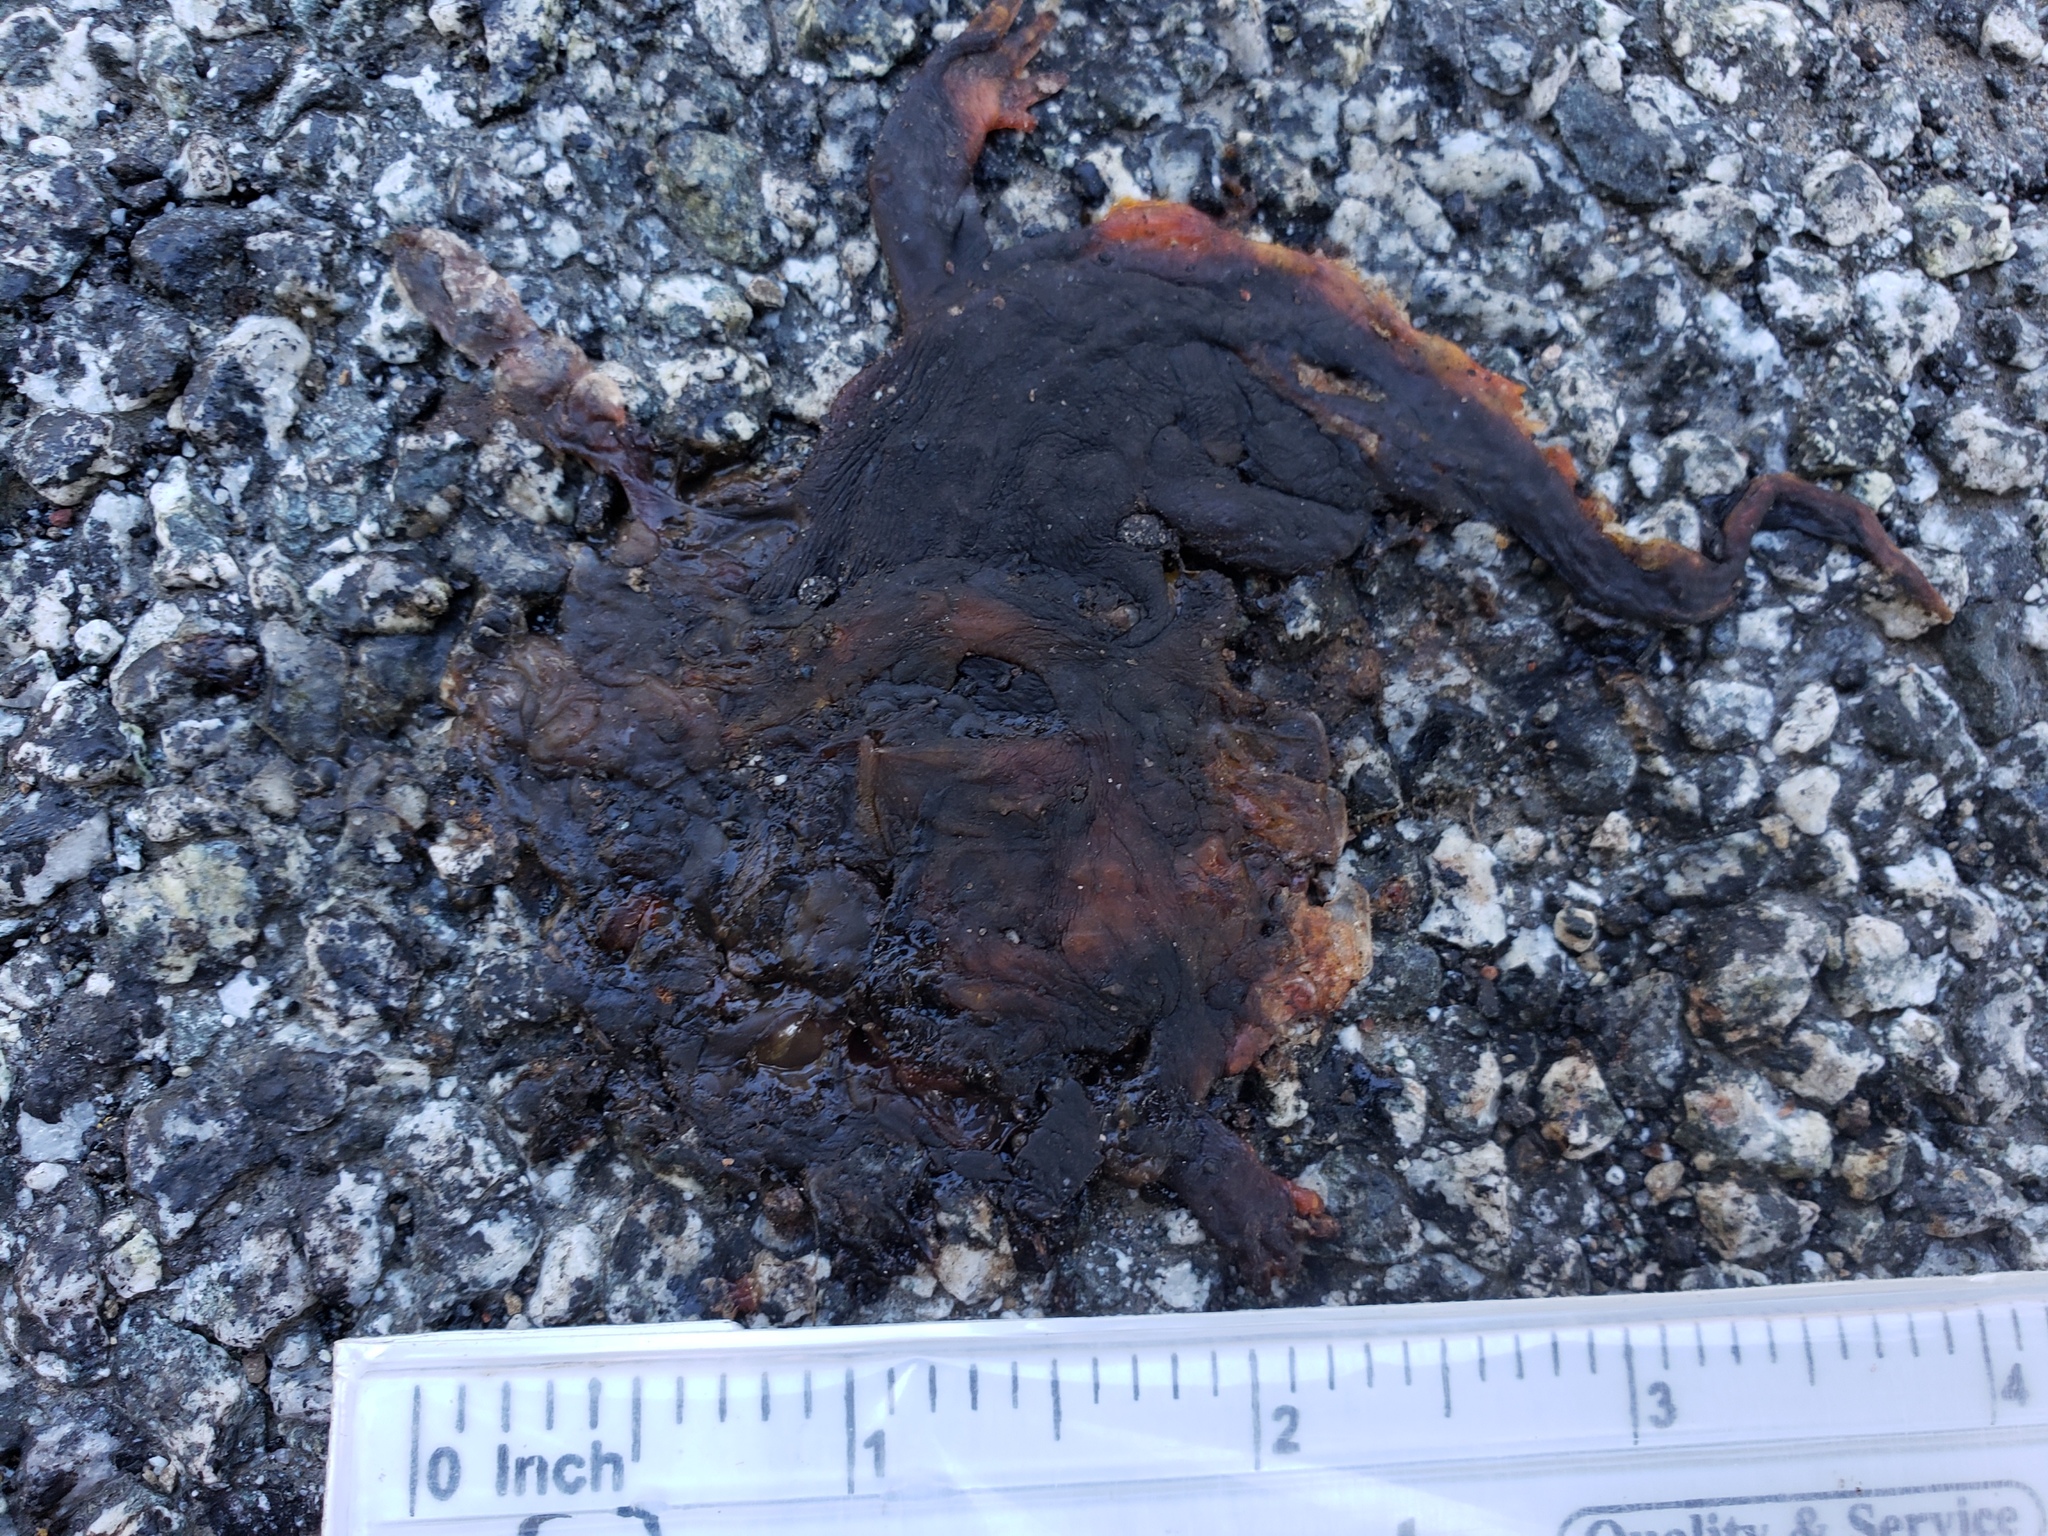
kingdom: Animalia
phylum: Chordata
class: Amphibia
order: Caudata
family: Salamandridae
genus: Taricha
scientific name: Taricha
